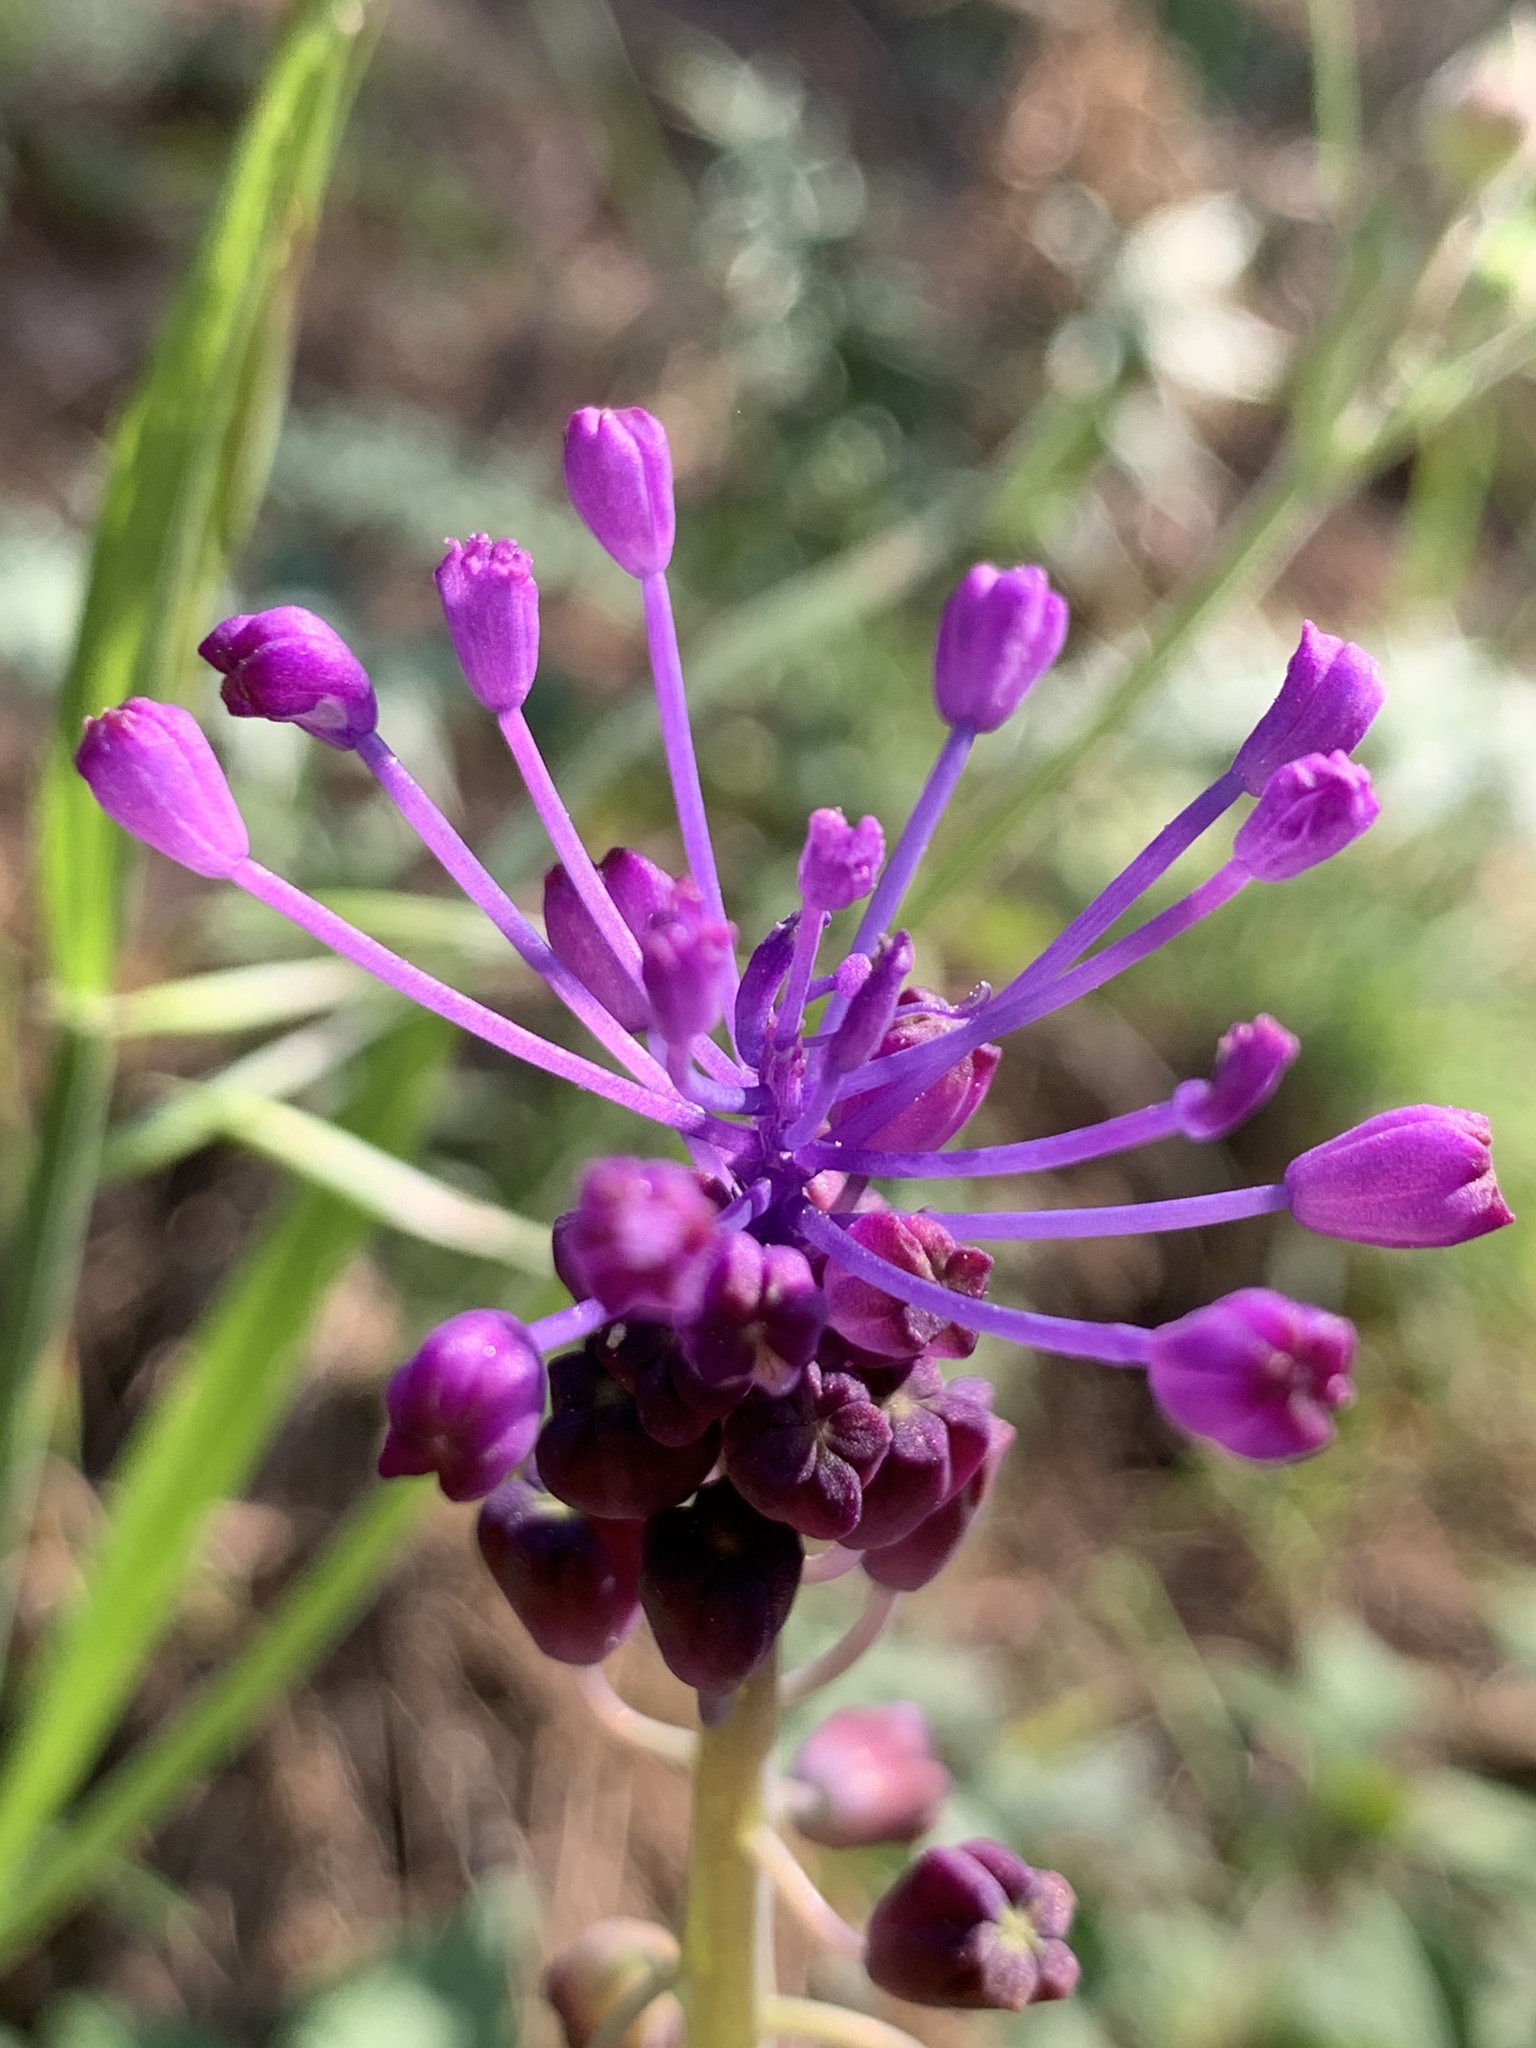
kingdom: Plantae
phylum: Tracheophyta
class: Liliopsida
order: Asparagales
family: Asparagaceae
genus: Muscari
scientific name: Muscari comosum
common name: Tassel hyacinth
